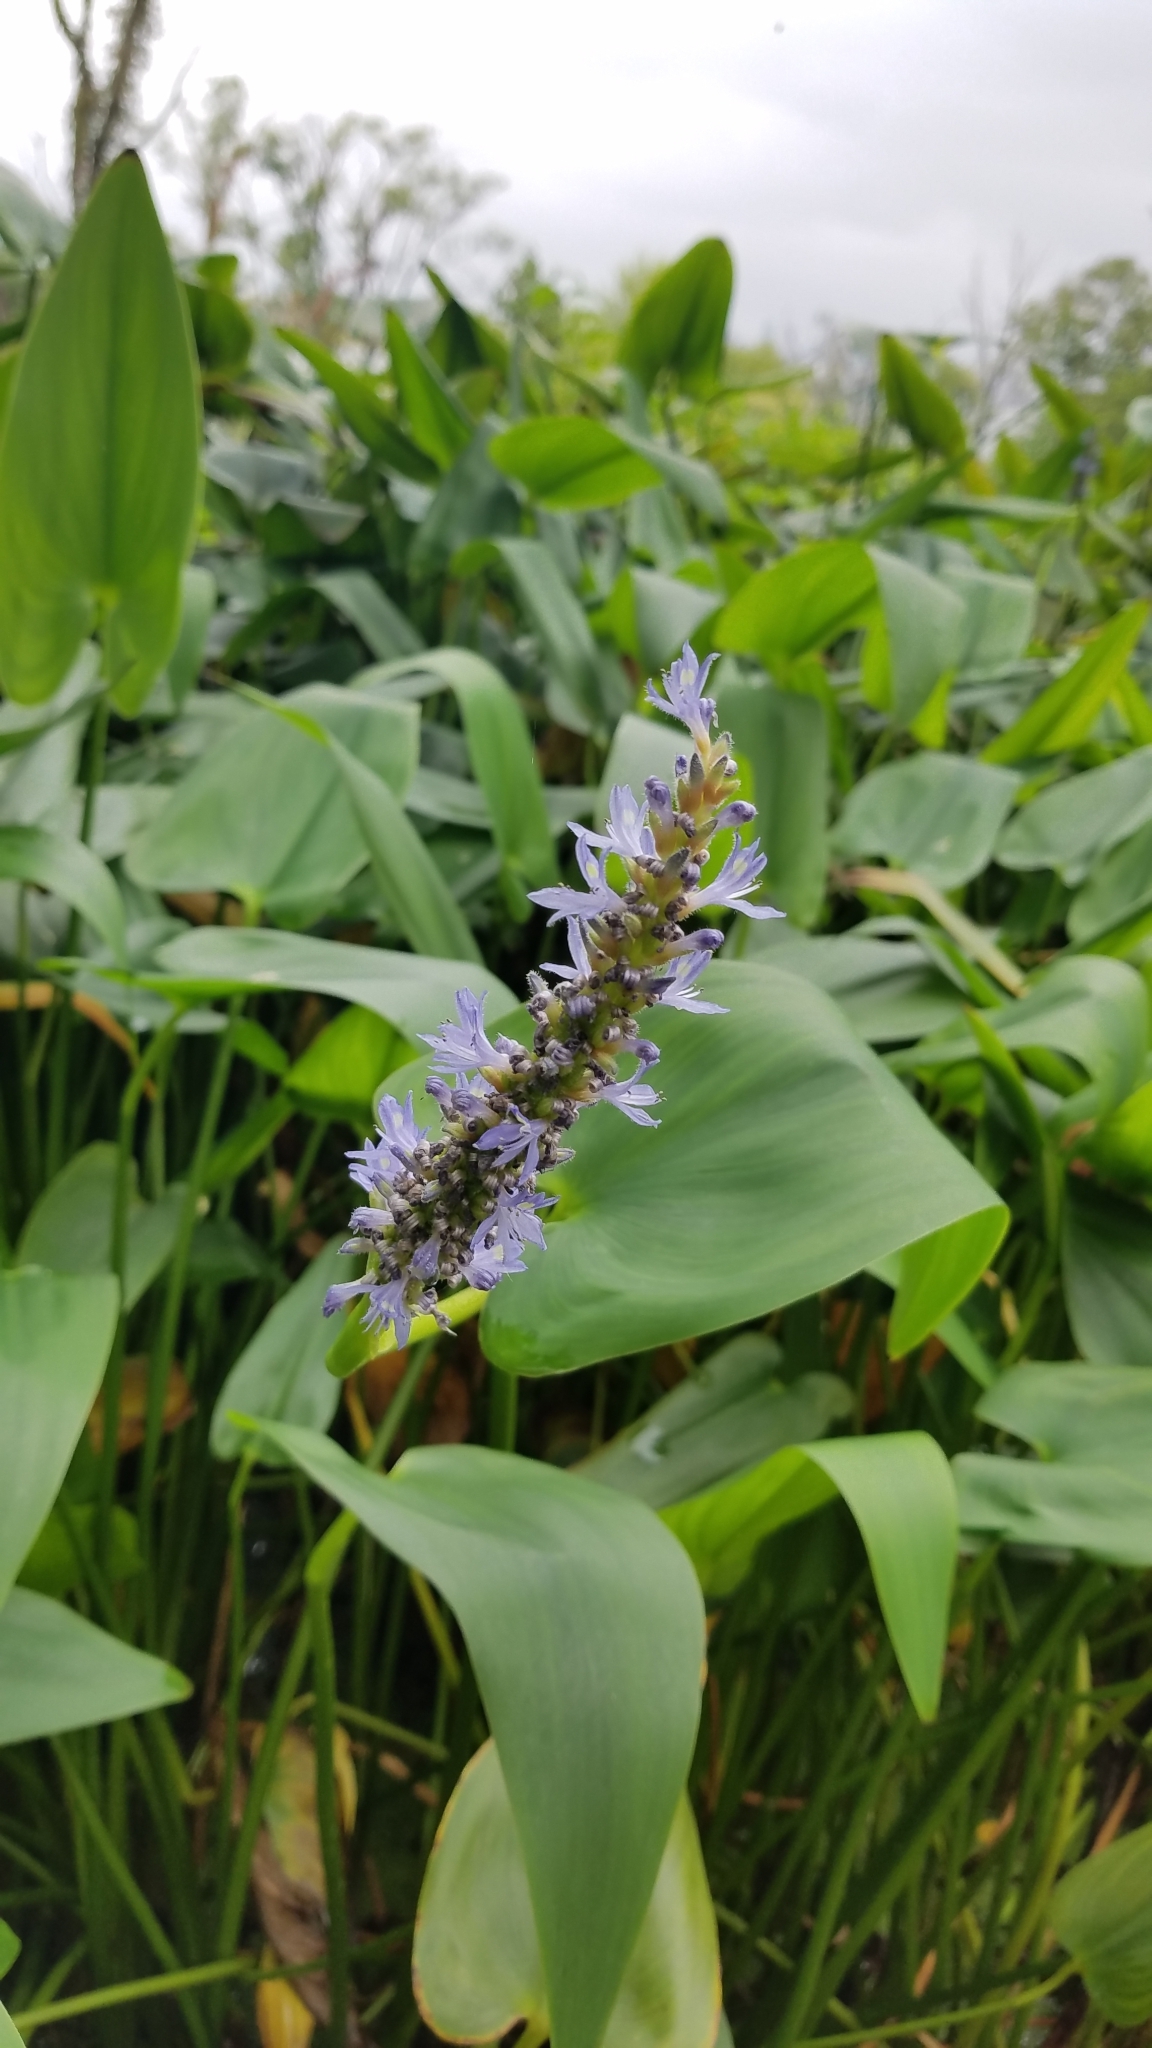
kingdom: Plantae
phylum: Tracheophyta
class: Liliopsida
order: Commelinales
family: Pontederiaceae
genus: Pontederia
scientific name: Pontederia cordata
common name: Pickerelweed
